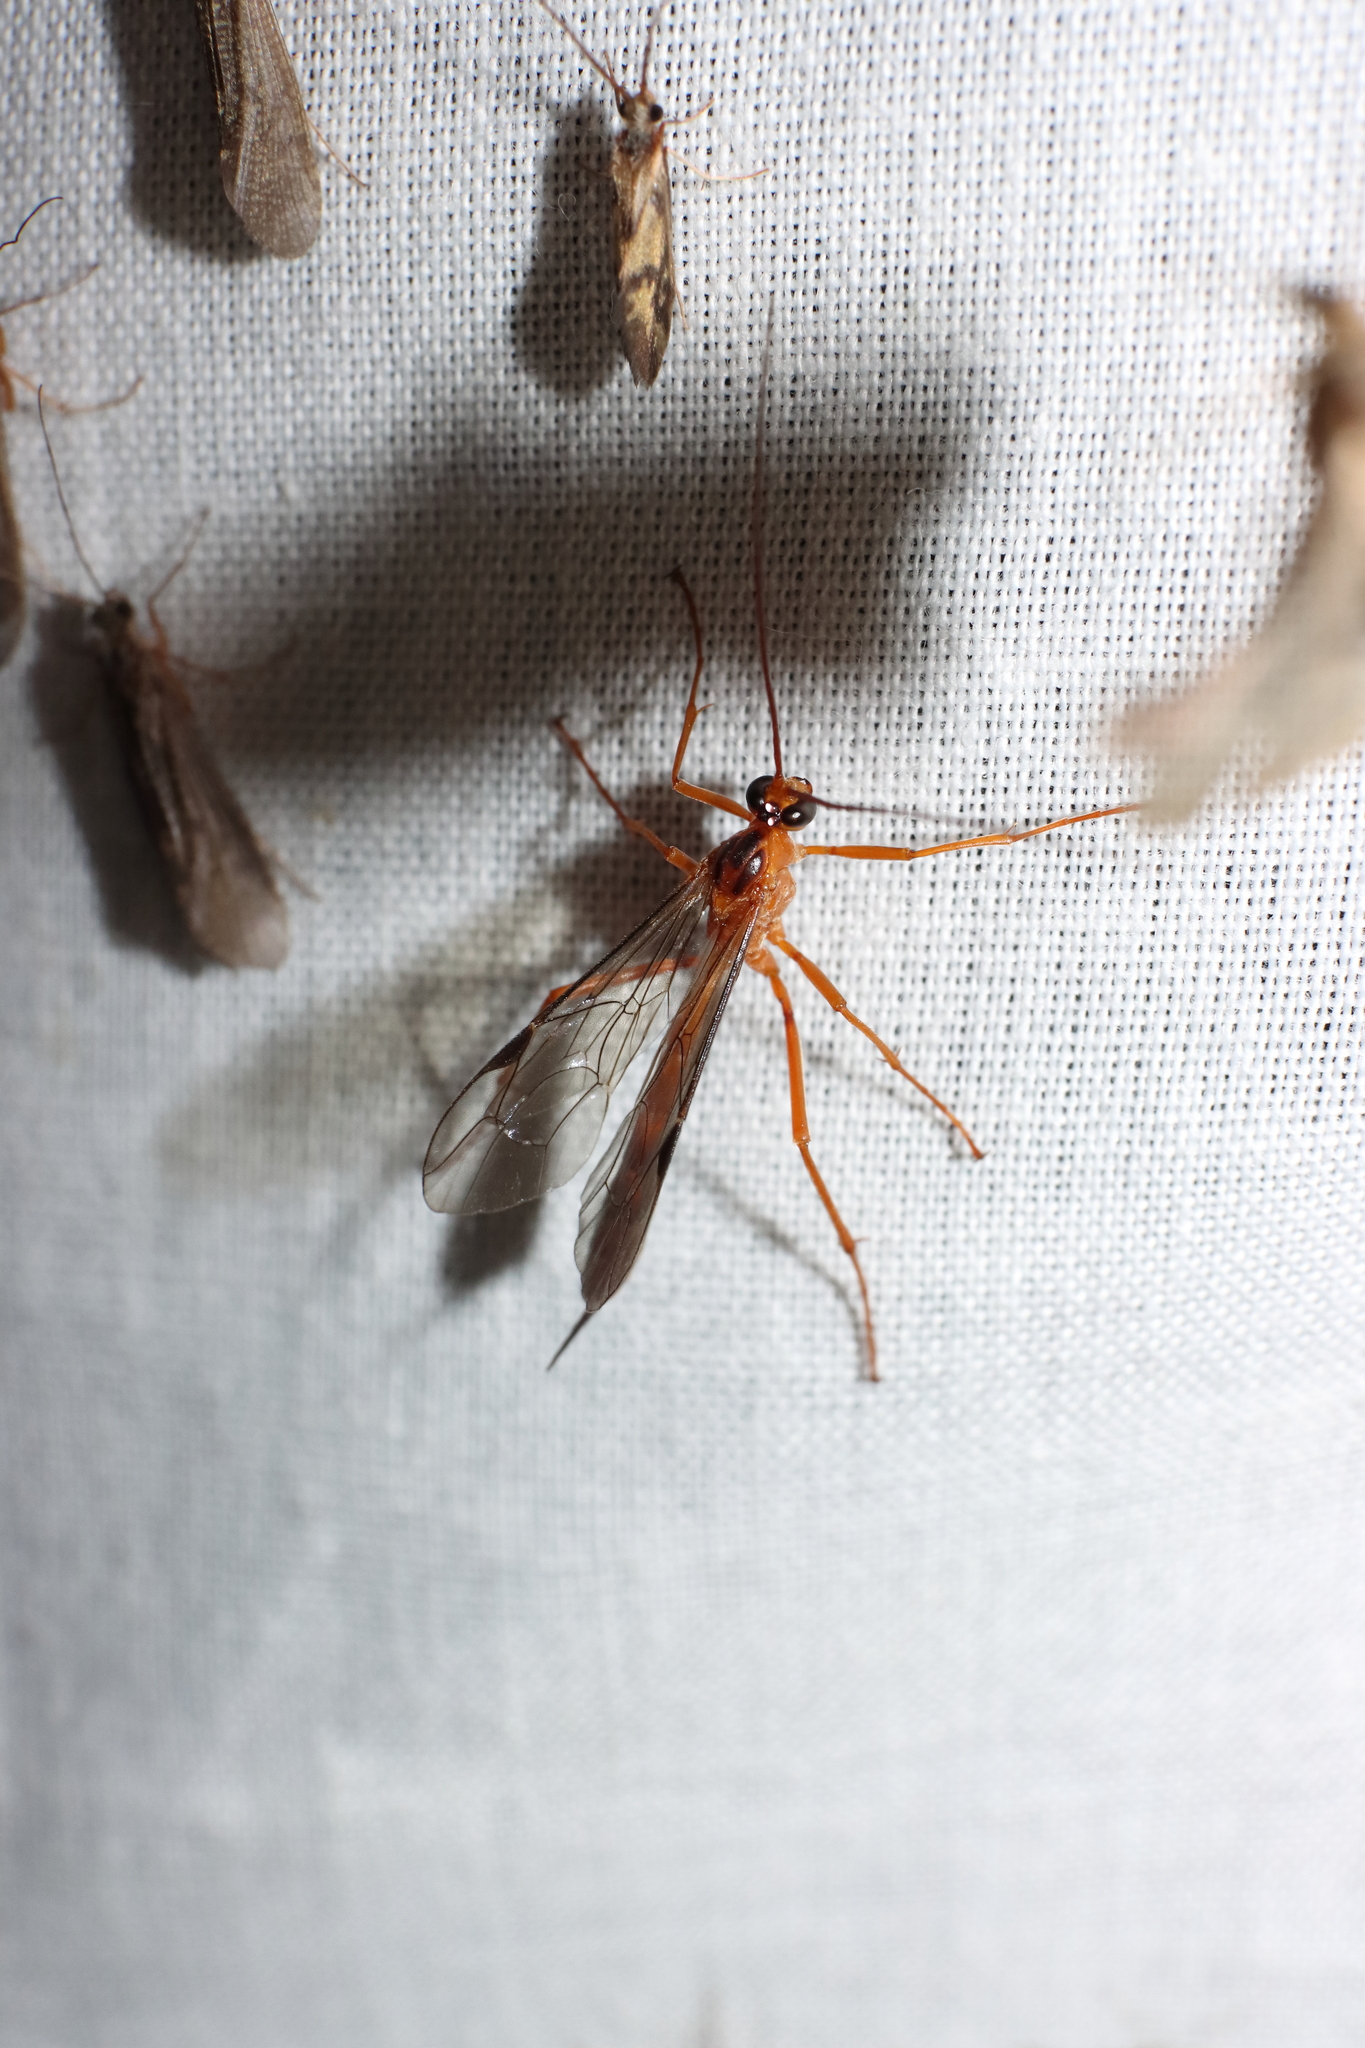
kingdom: Animalia
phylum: Arthropoda
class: Insecta
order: Hymenoptera
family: Ichneumonidae
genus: Netelia
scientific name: Netelia ephippiata
